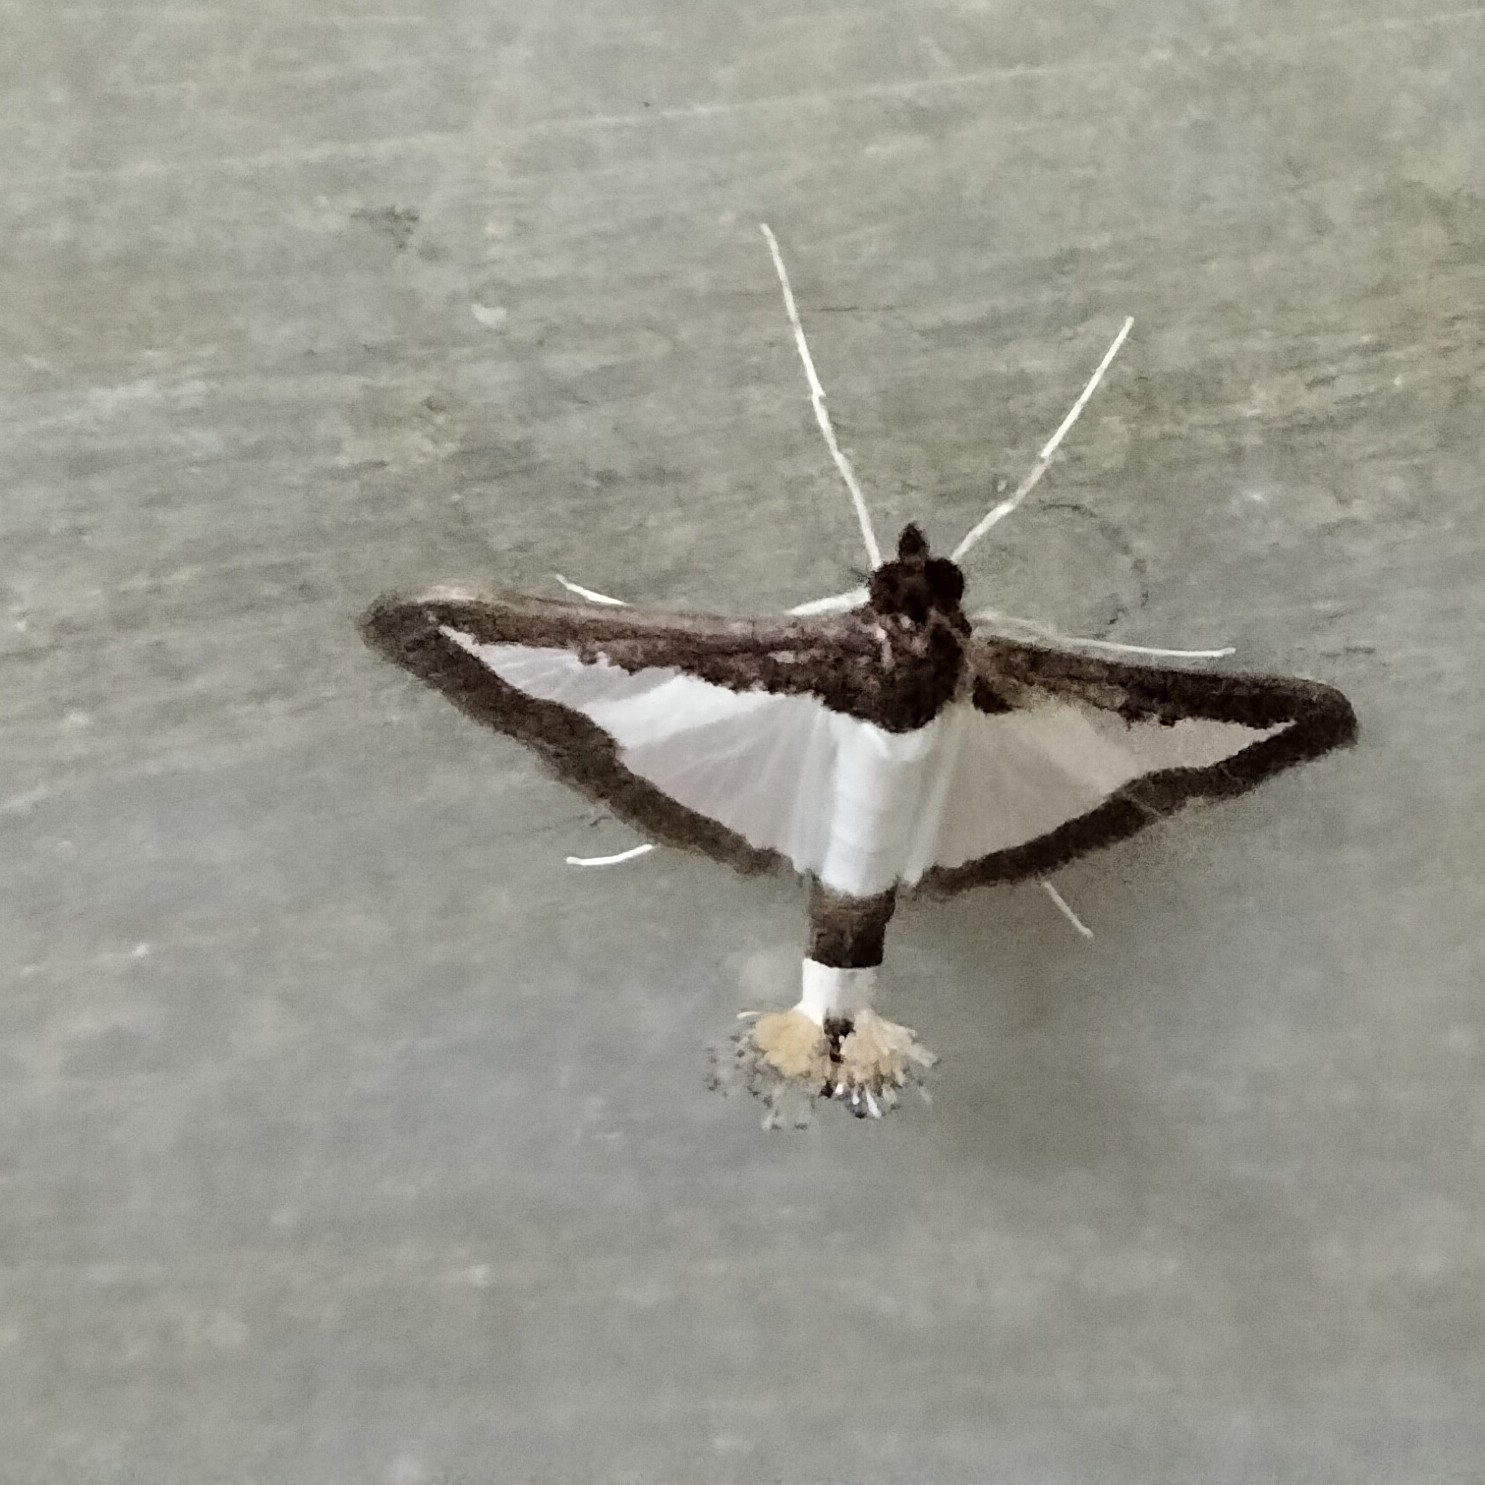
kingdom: Animalia
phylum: Arthropoda
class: Insecta
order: Lepidoptera
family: Crambidae
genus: Diaphania
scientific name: Diaphania indica
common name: Cucumber moth
